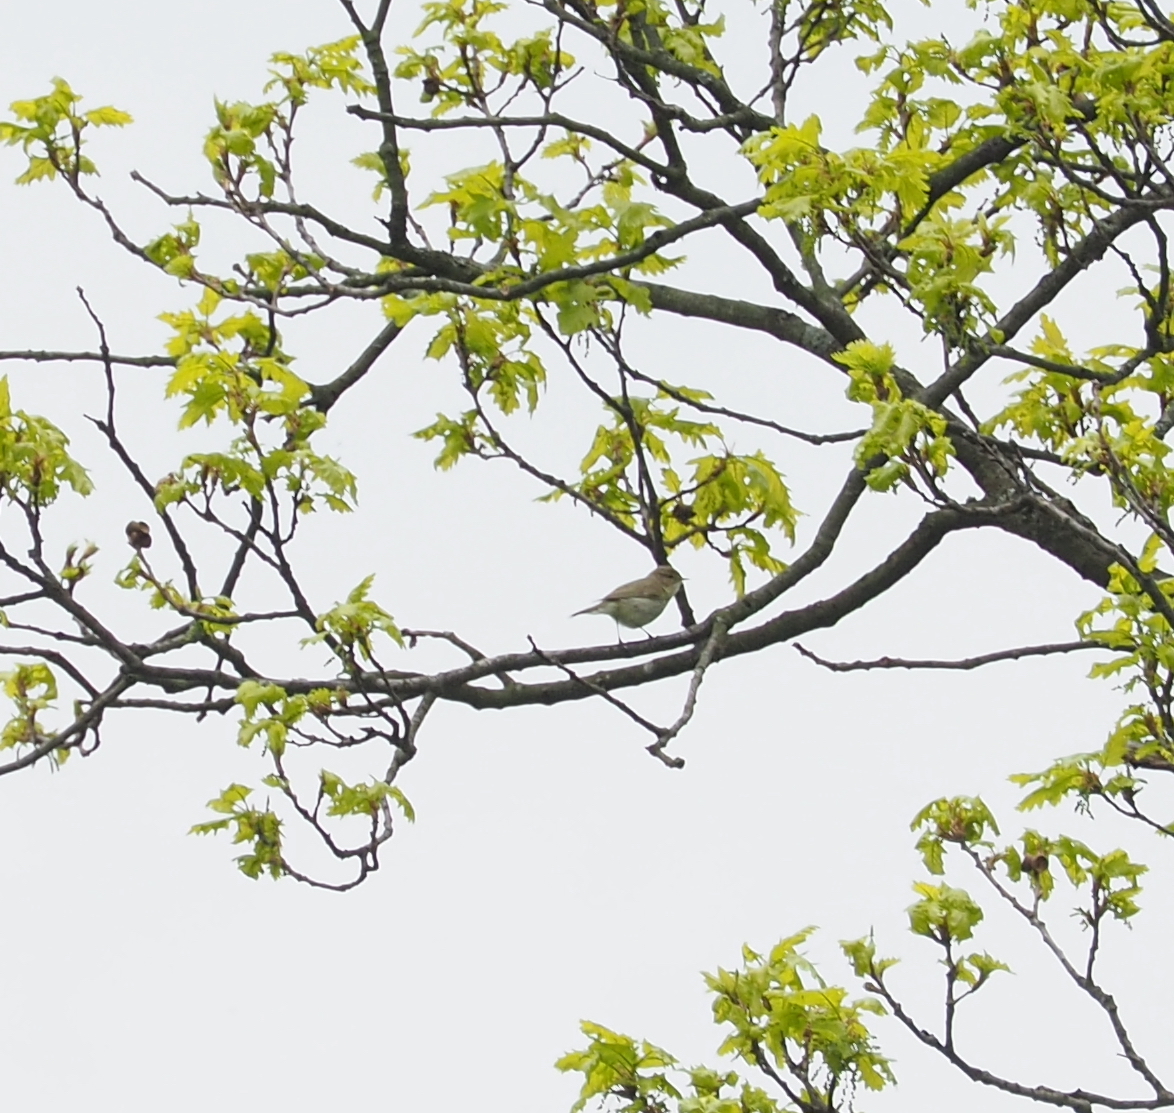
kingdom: Animalia
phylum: Chordata
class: Aves
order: Passeriformes
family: Phylloscopidae
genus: Phylloscopus
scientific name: Phylloscopus collybita
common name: Common chiffchaff
